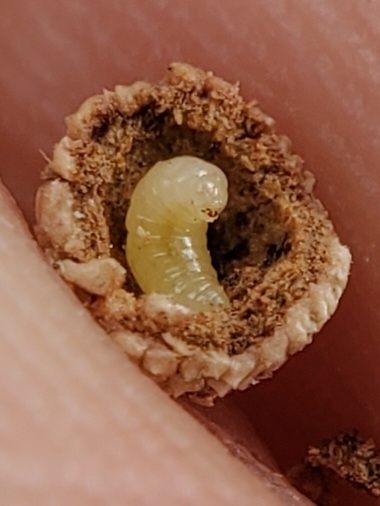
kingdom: Animalia
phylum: Arthropoda
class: Insecta
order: Hymenoptera
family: Cynipidae
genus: Acraspis
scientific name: Acraspis
